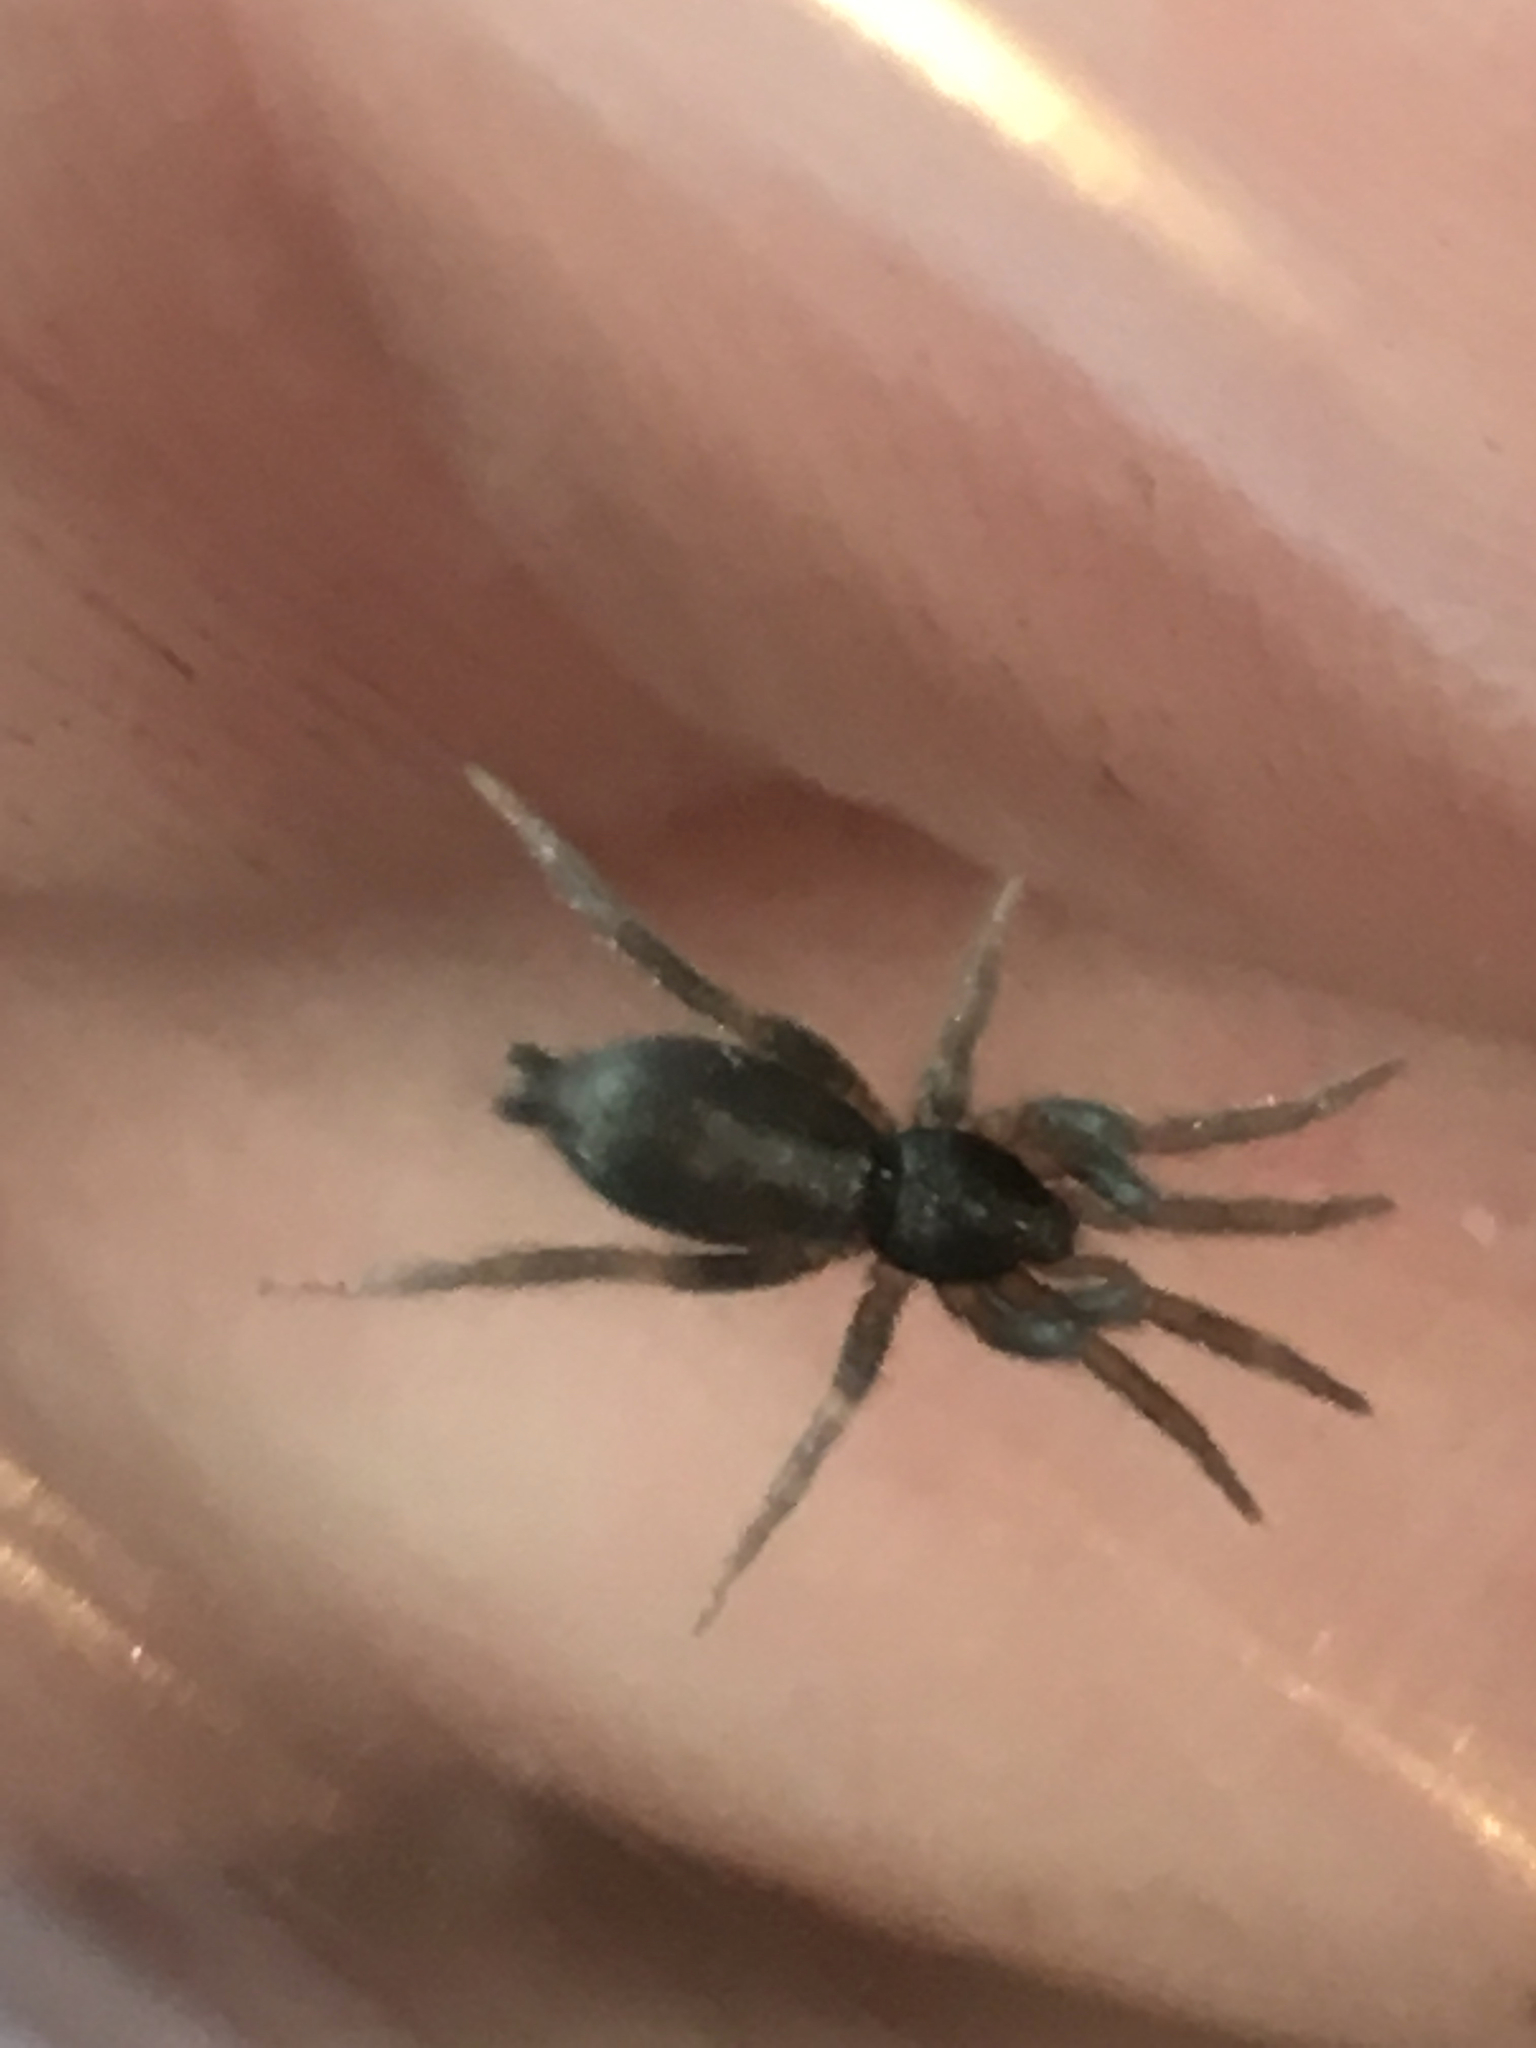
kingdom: Animalia
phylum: Arthropoda
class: Arachnida
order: Araneae
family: Gnaphosidae
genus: Herpyllus
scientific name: Herpyllus ecclesiasticus
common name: Eastern parson spider
